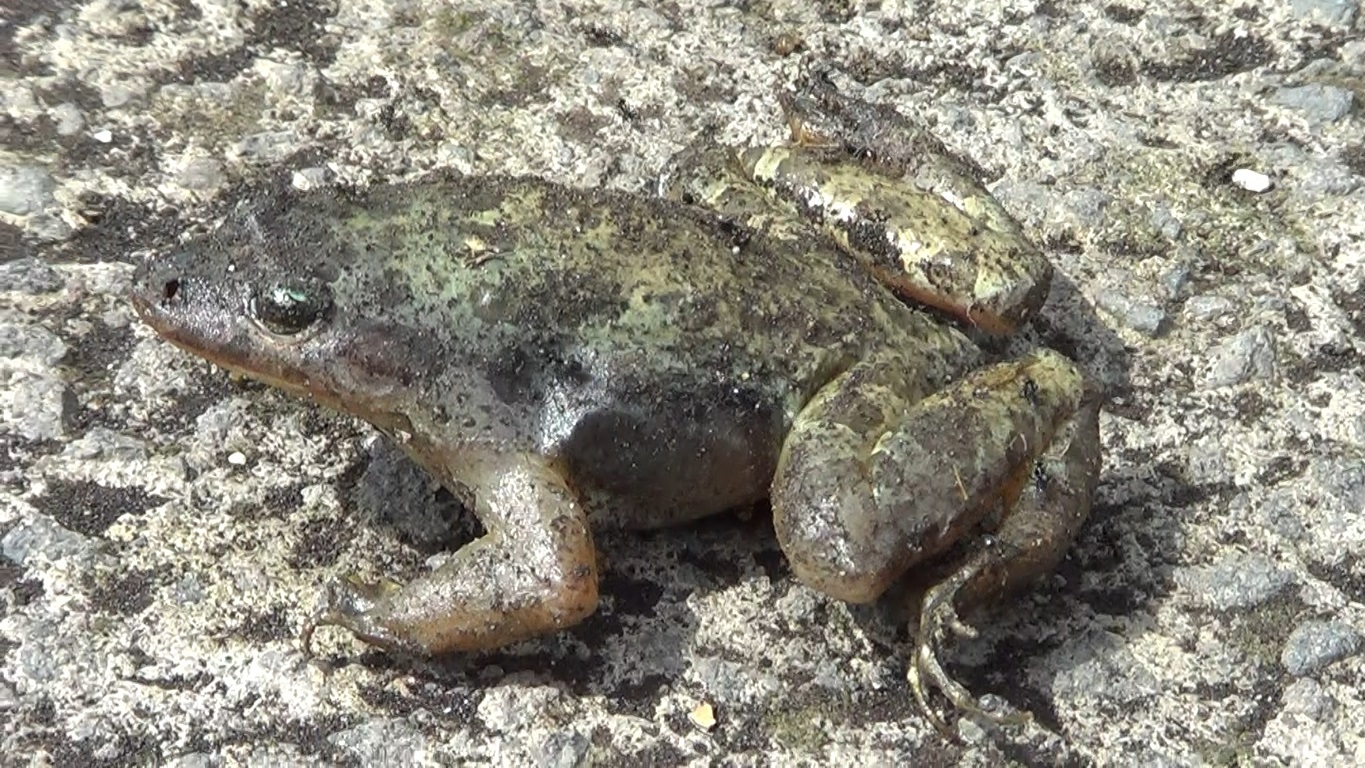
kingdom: Animalia
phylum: Chordata
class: Amphibia
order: Anura
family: Alytidae
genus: Discoglossus
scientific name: Discoglossus pictus
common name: Painted frog
